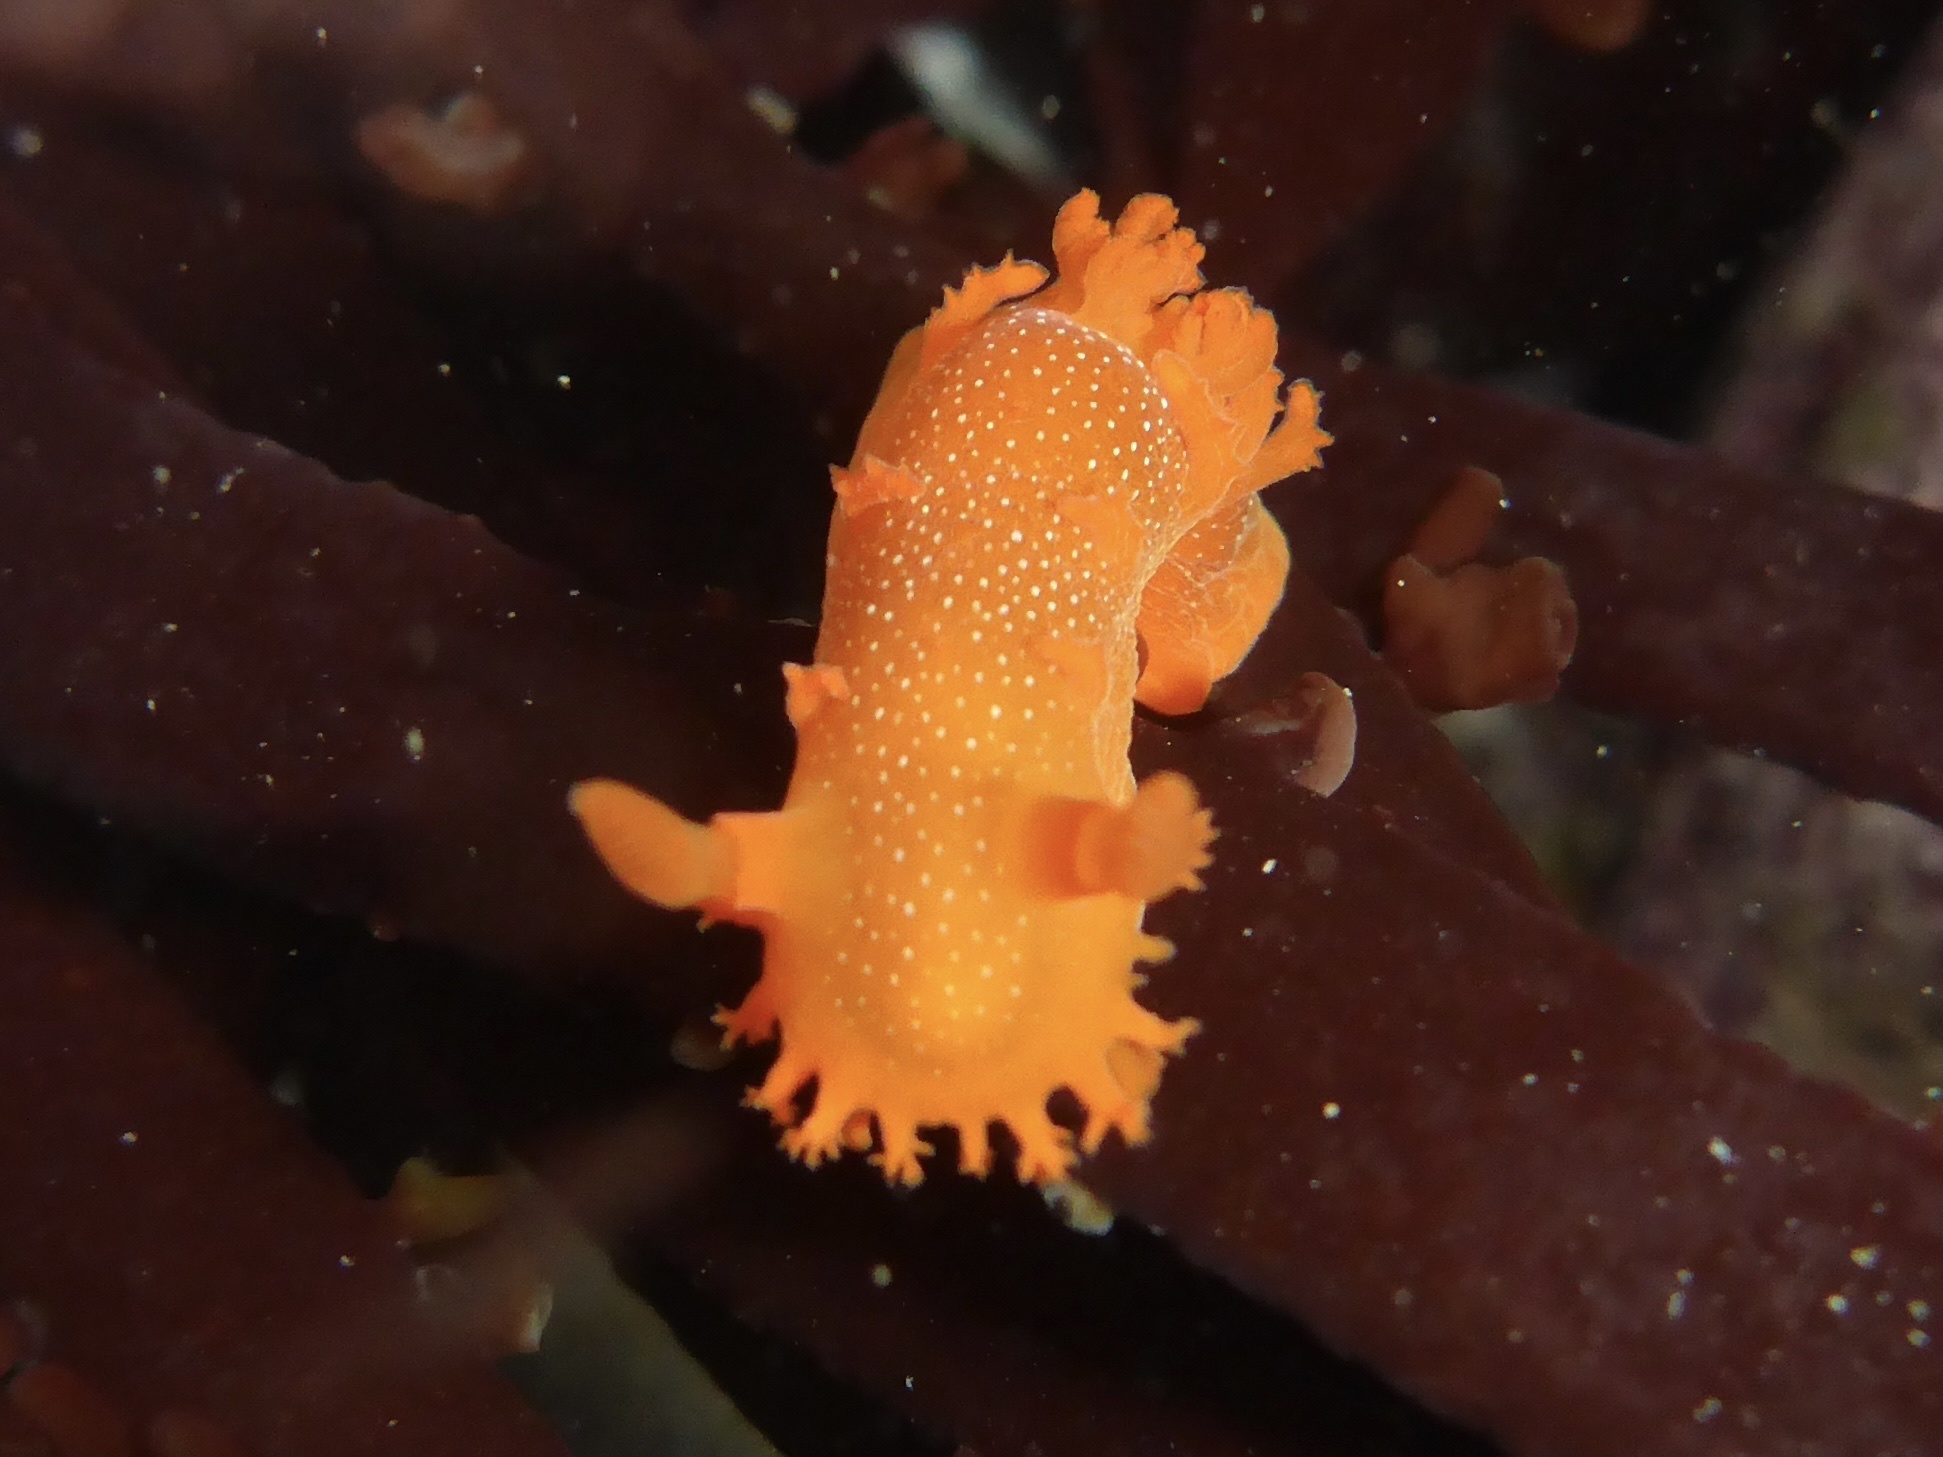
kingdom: Animalia
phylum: Mollusca
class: Gastropoda
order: Nudibranchia
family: Polyceridae
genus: Triopha
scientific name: Triopha maculata
